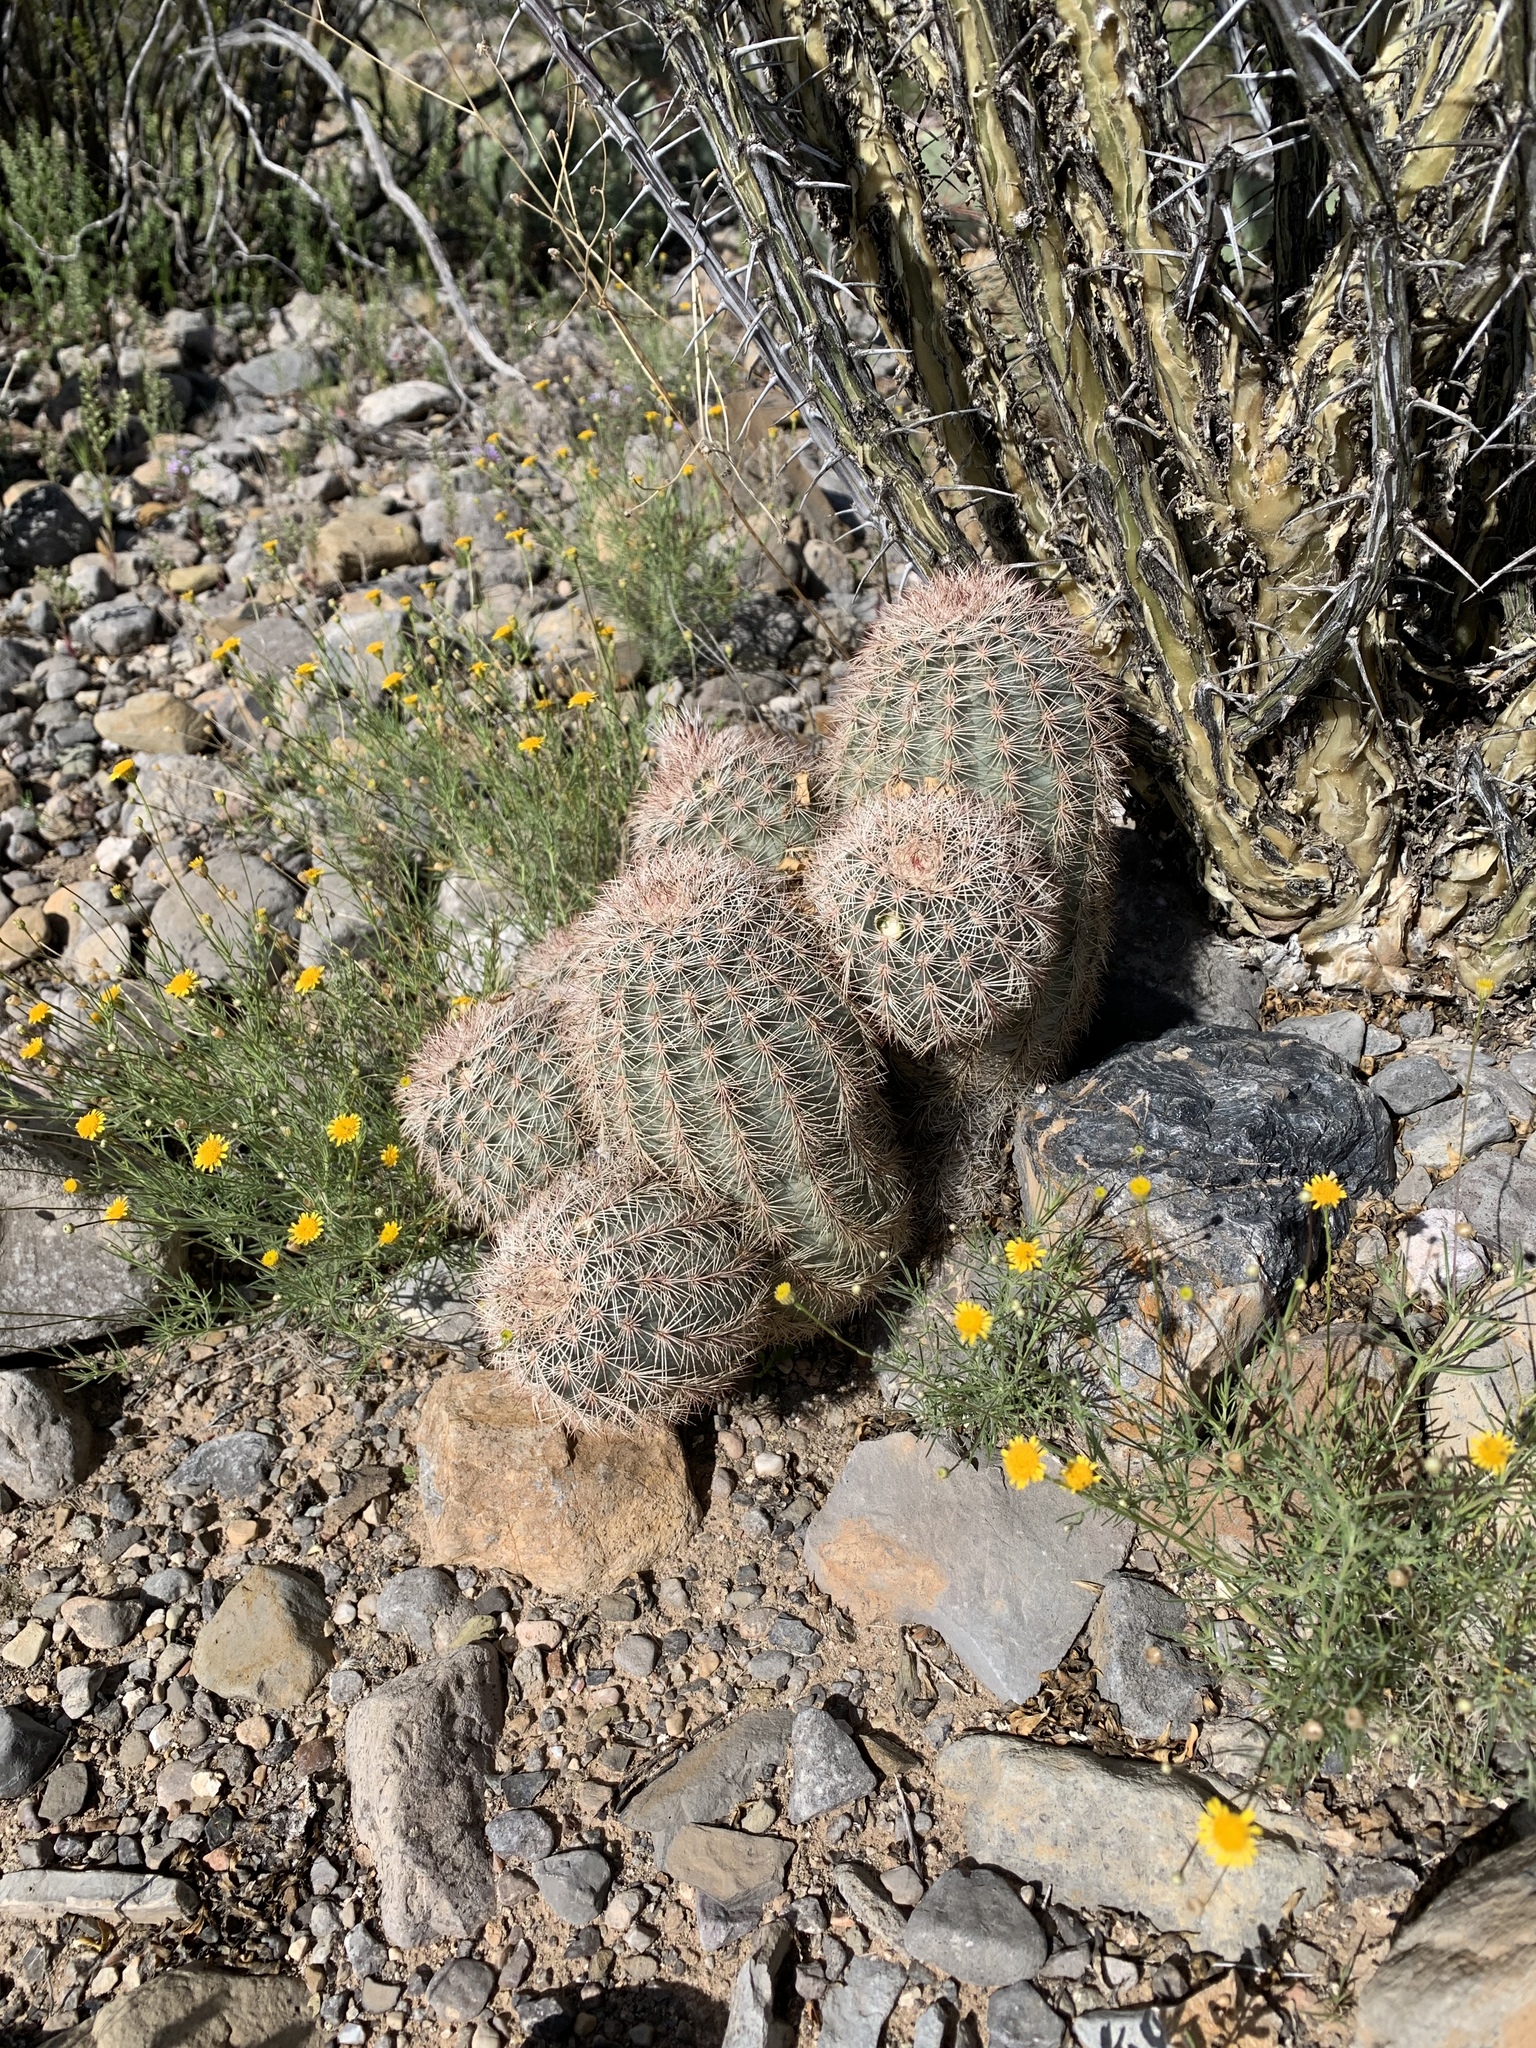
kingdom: Plantae
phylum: Tracheophyta
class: Magnoliopsida
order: Caryophyllales
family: Cactaceae
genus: Echinocereus
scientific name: Echinocereus dasyacanthus
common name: Spiny hedgehog cactus
